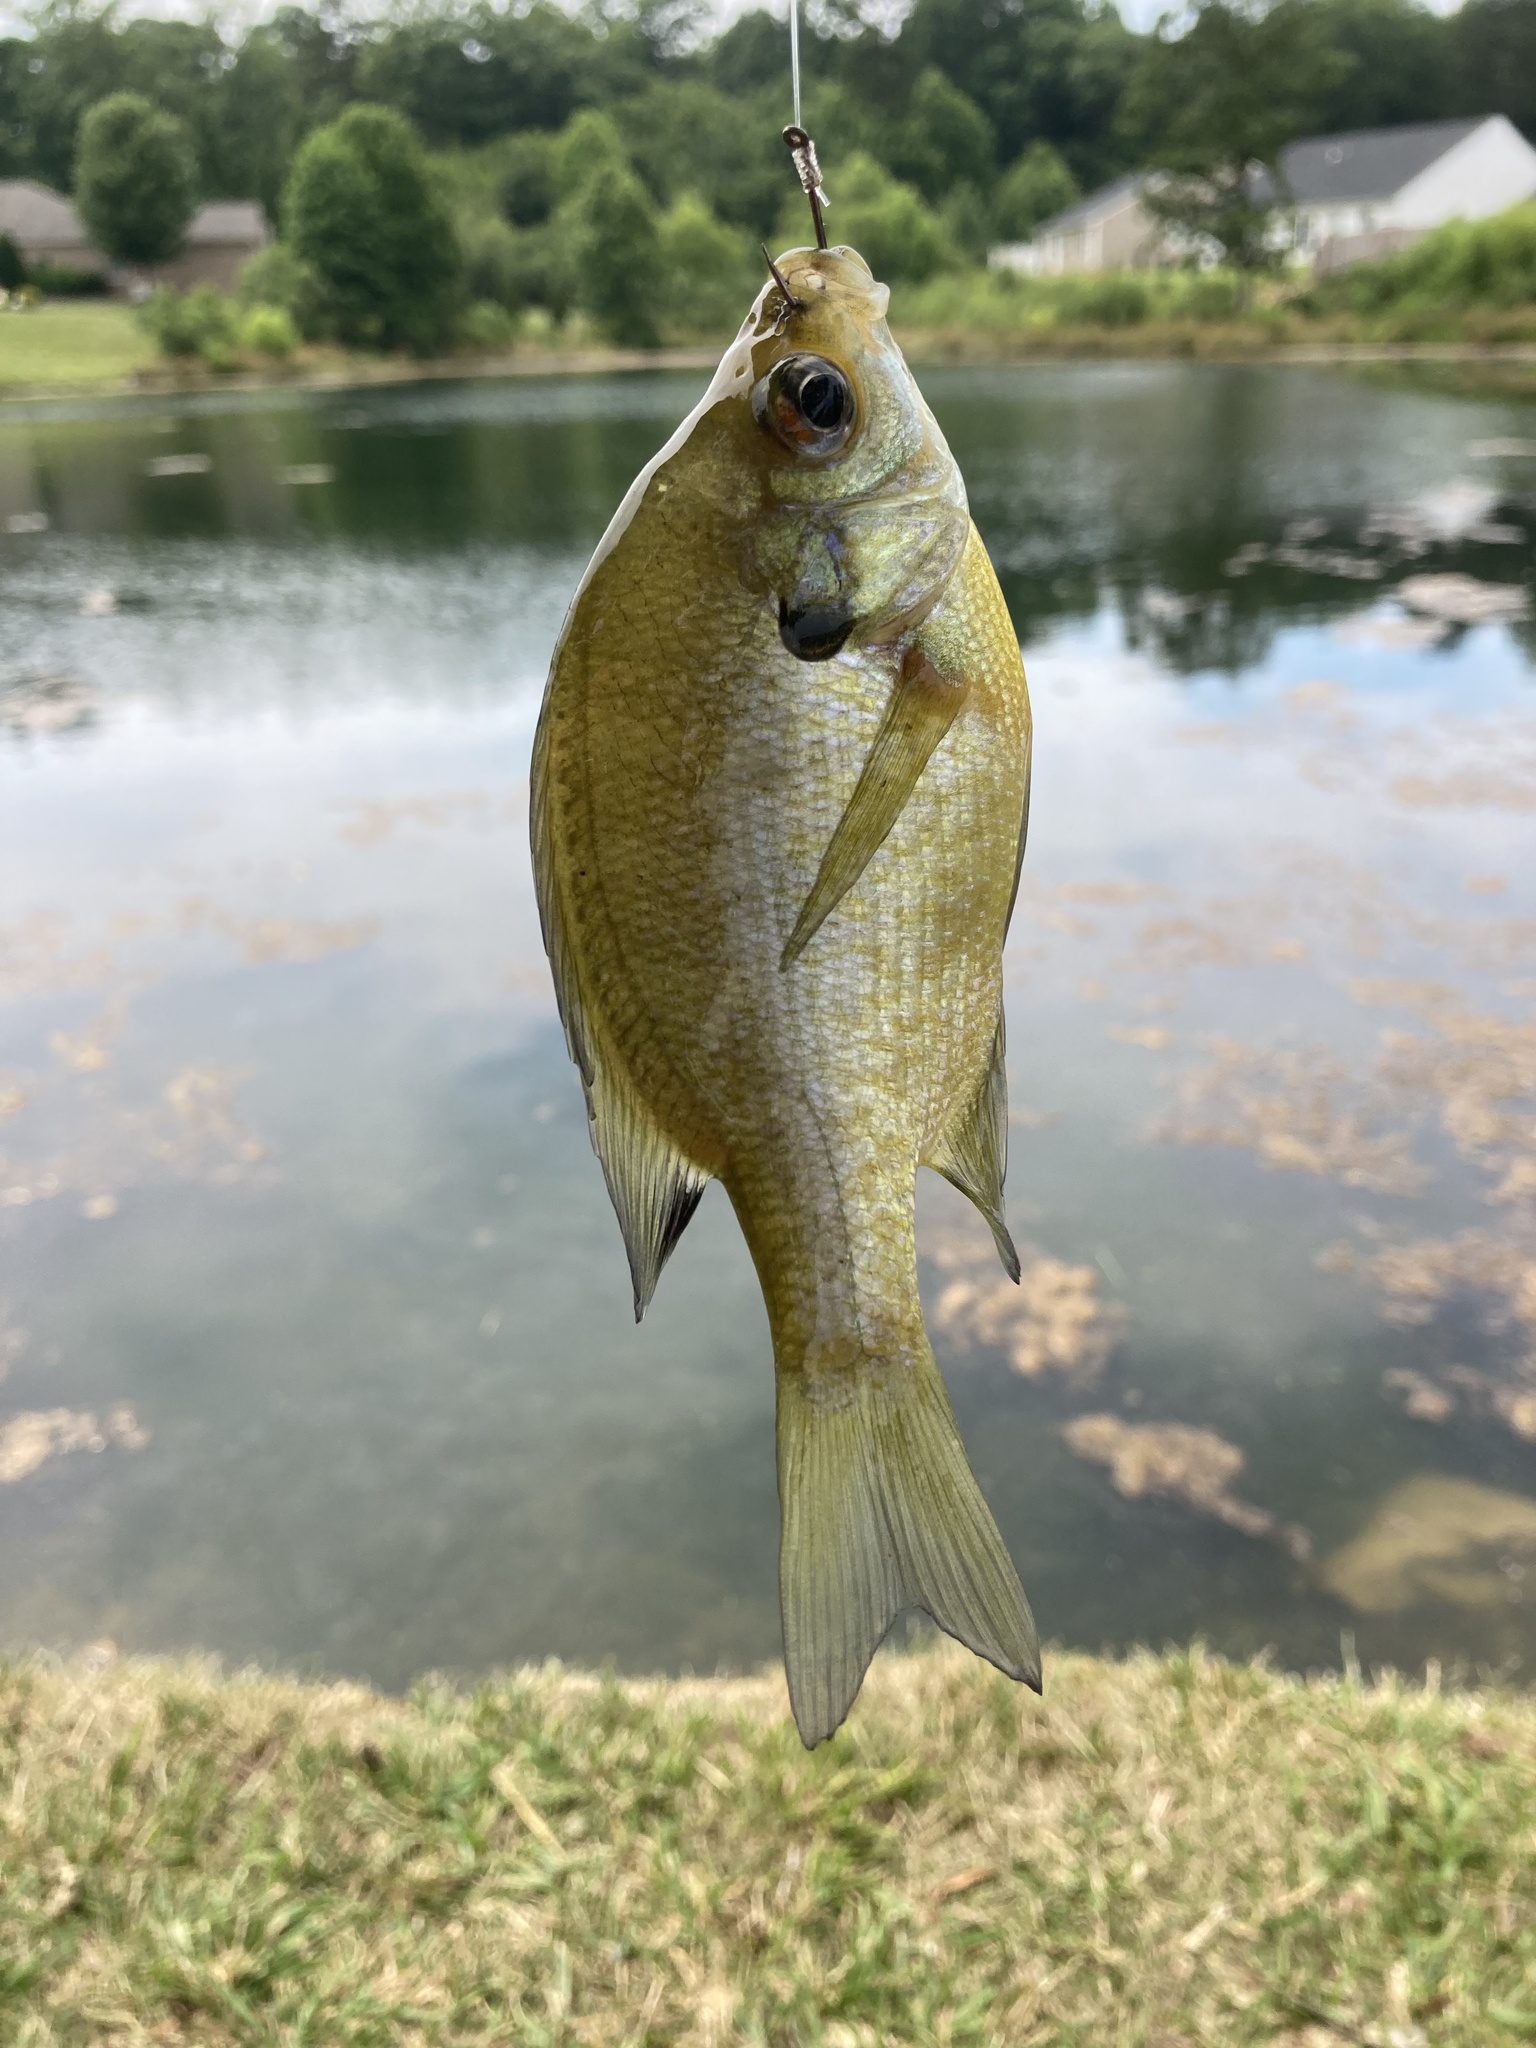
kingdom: Animalia
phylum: Chordata
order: Perciformes
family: Centrarchidae
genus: Lepomis
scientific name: Lepomis macrochirus
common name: Bluegill
